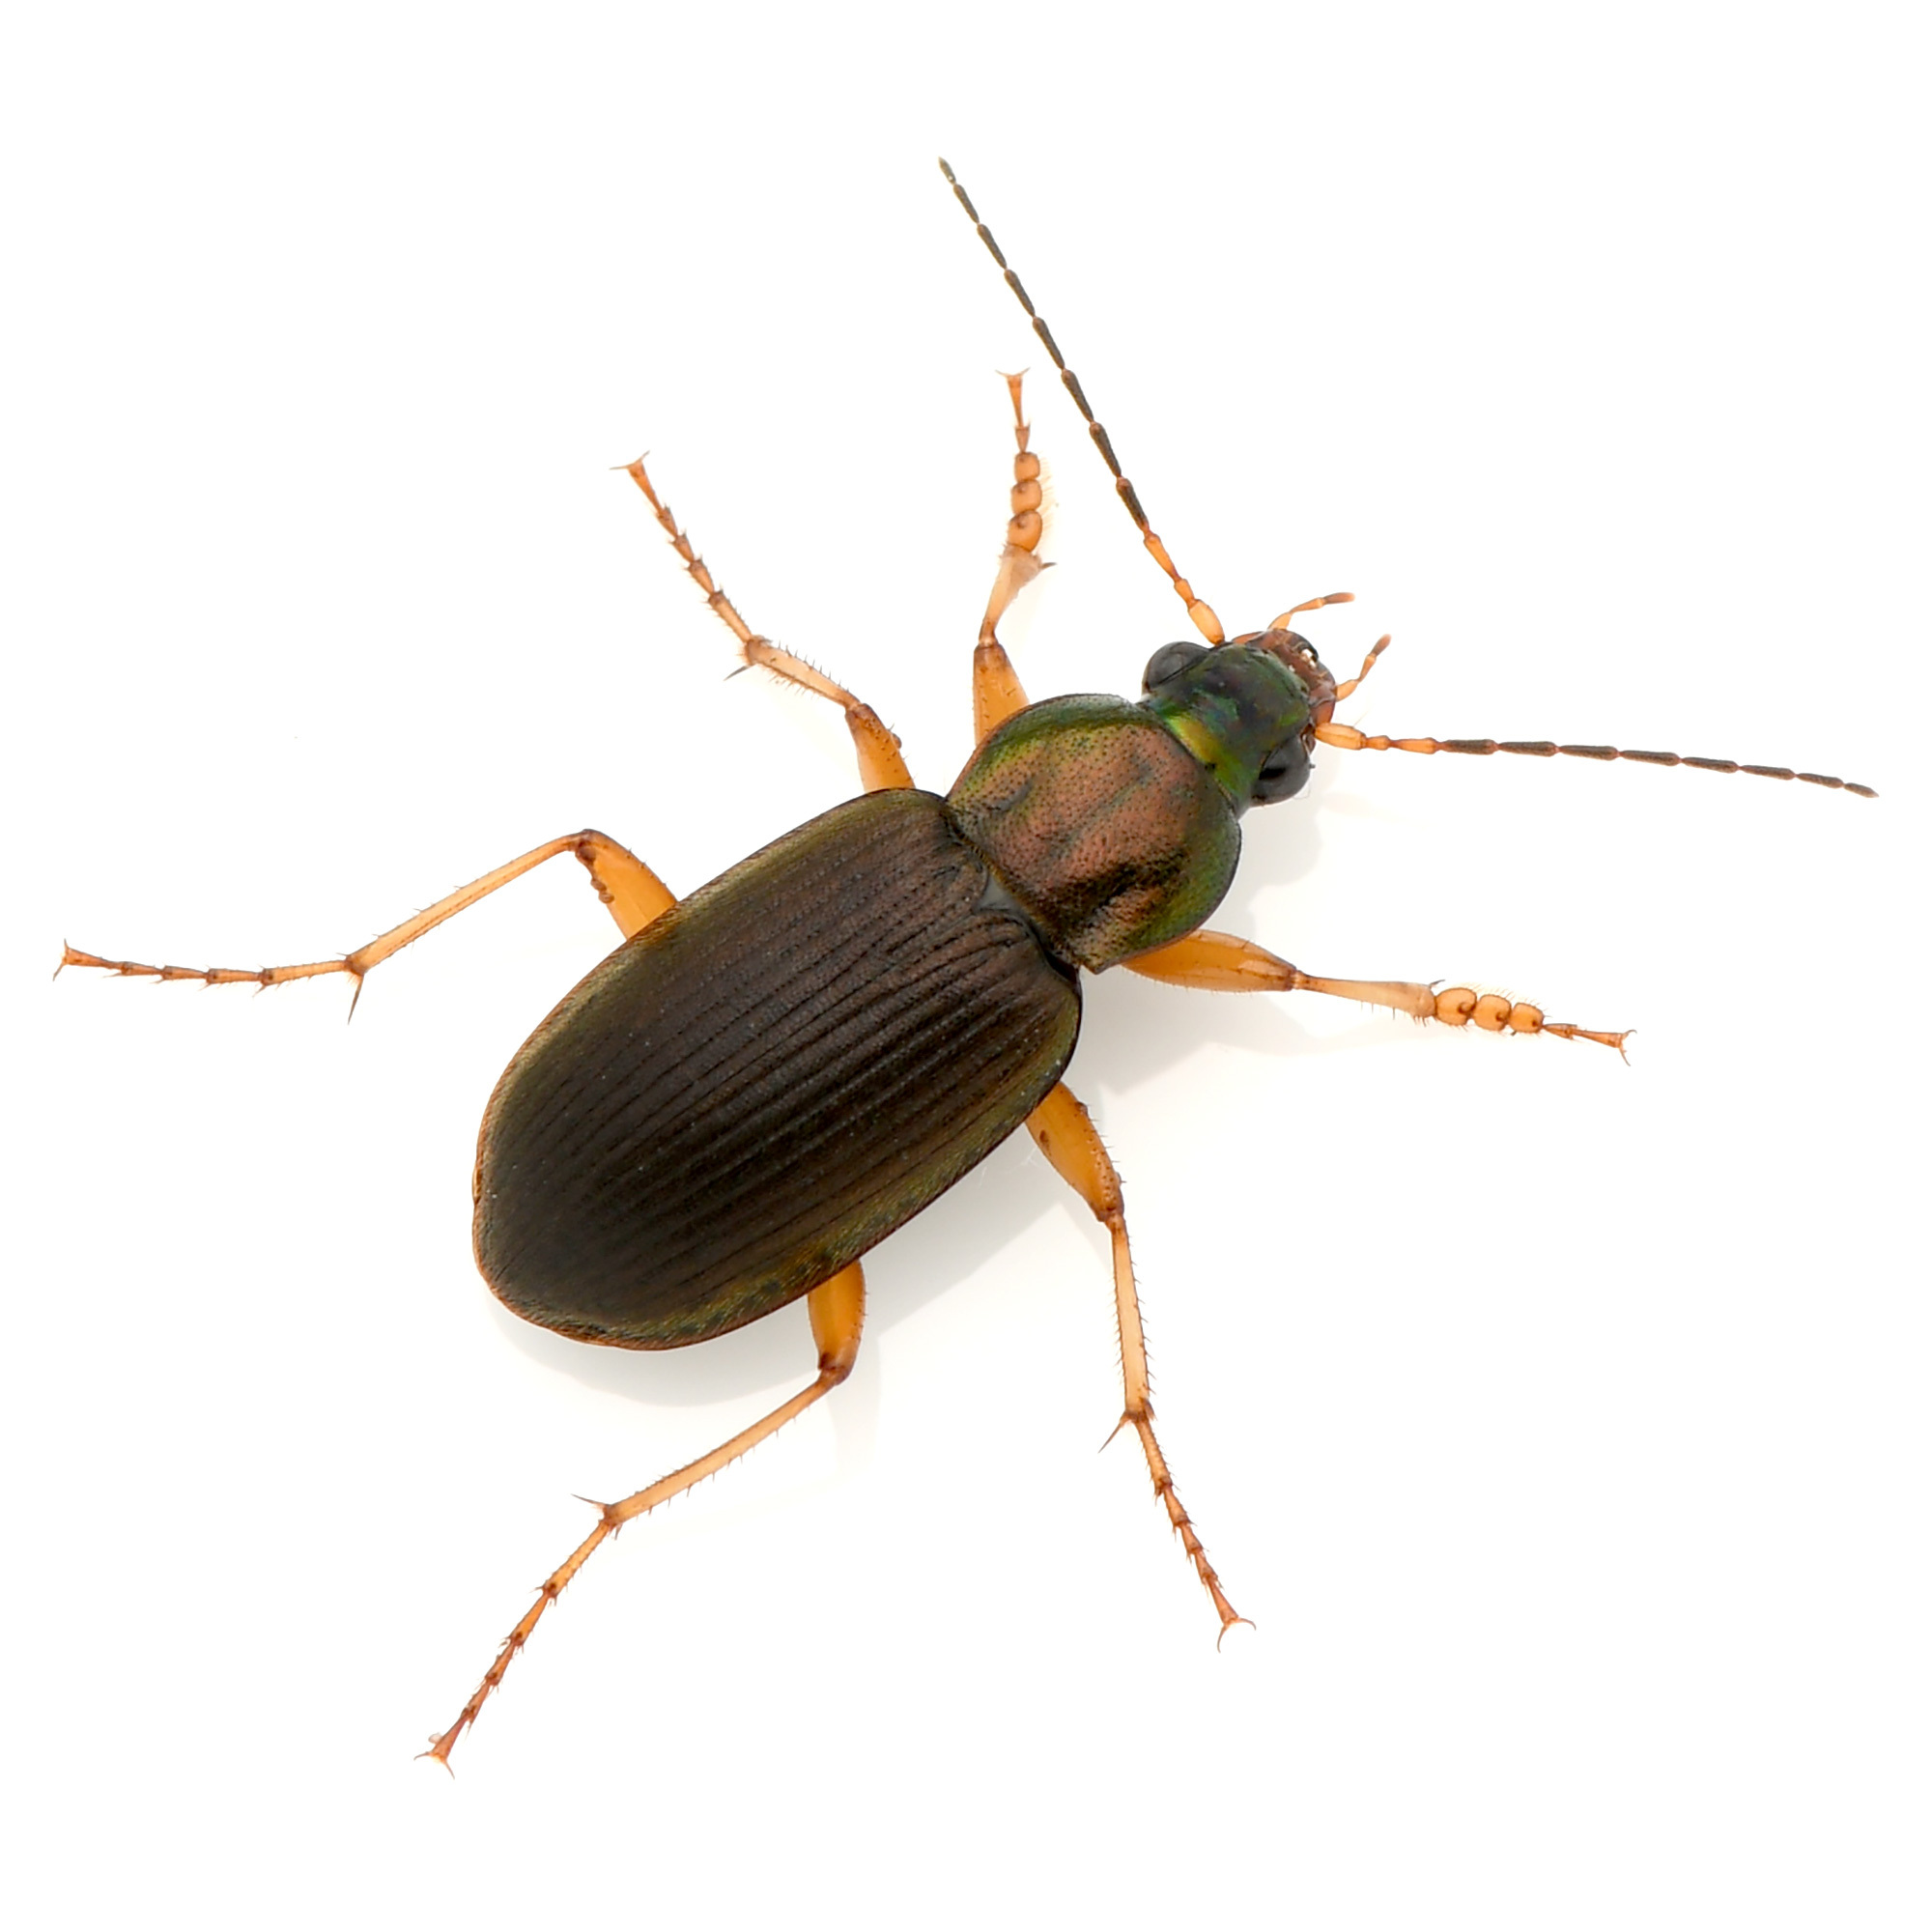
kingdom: Animalia
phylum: Arthropoda
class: Insecta
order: Coleoptera
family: Carabidae
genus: Chlaenius
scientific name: Chlaenius pennsylvanicus
